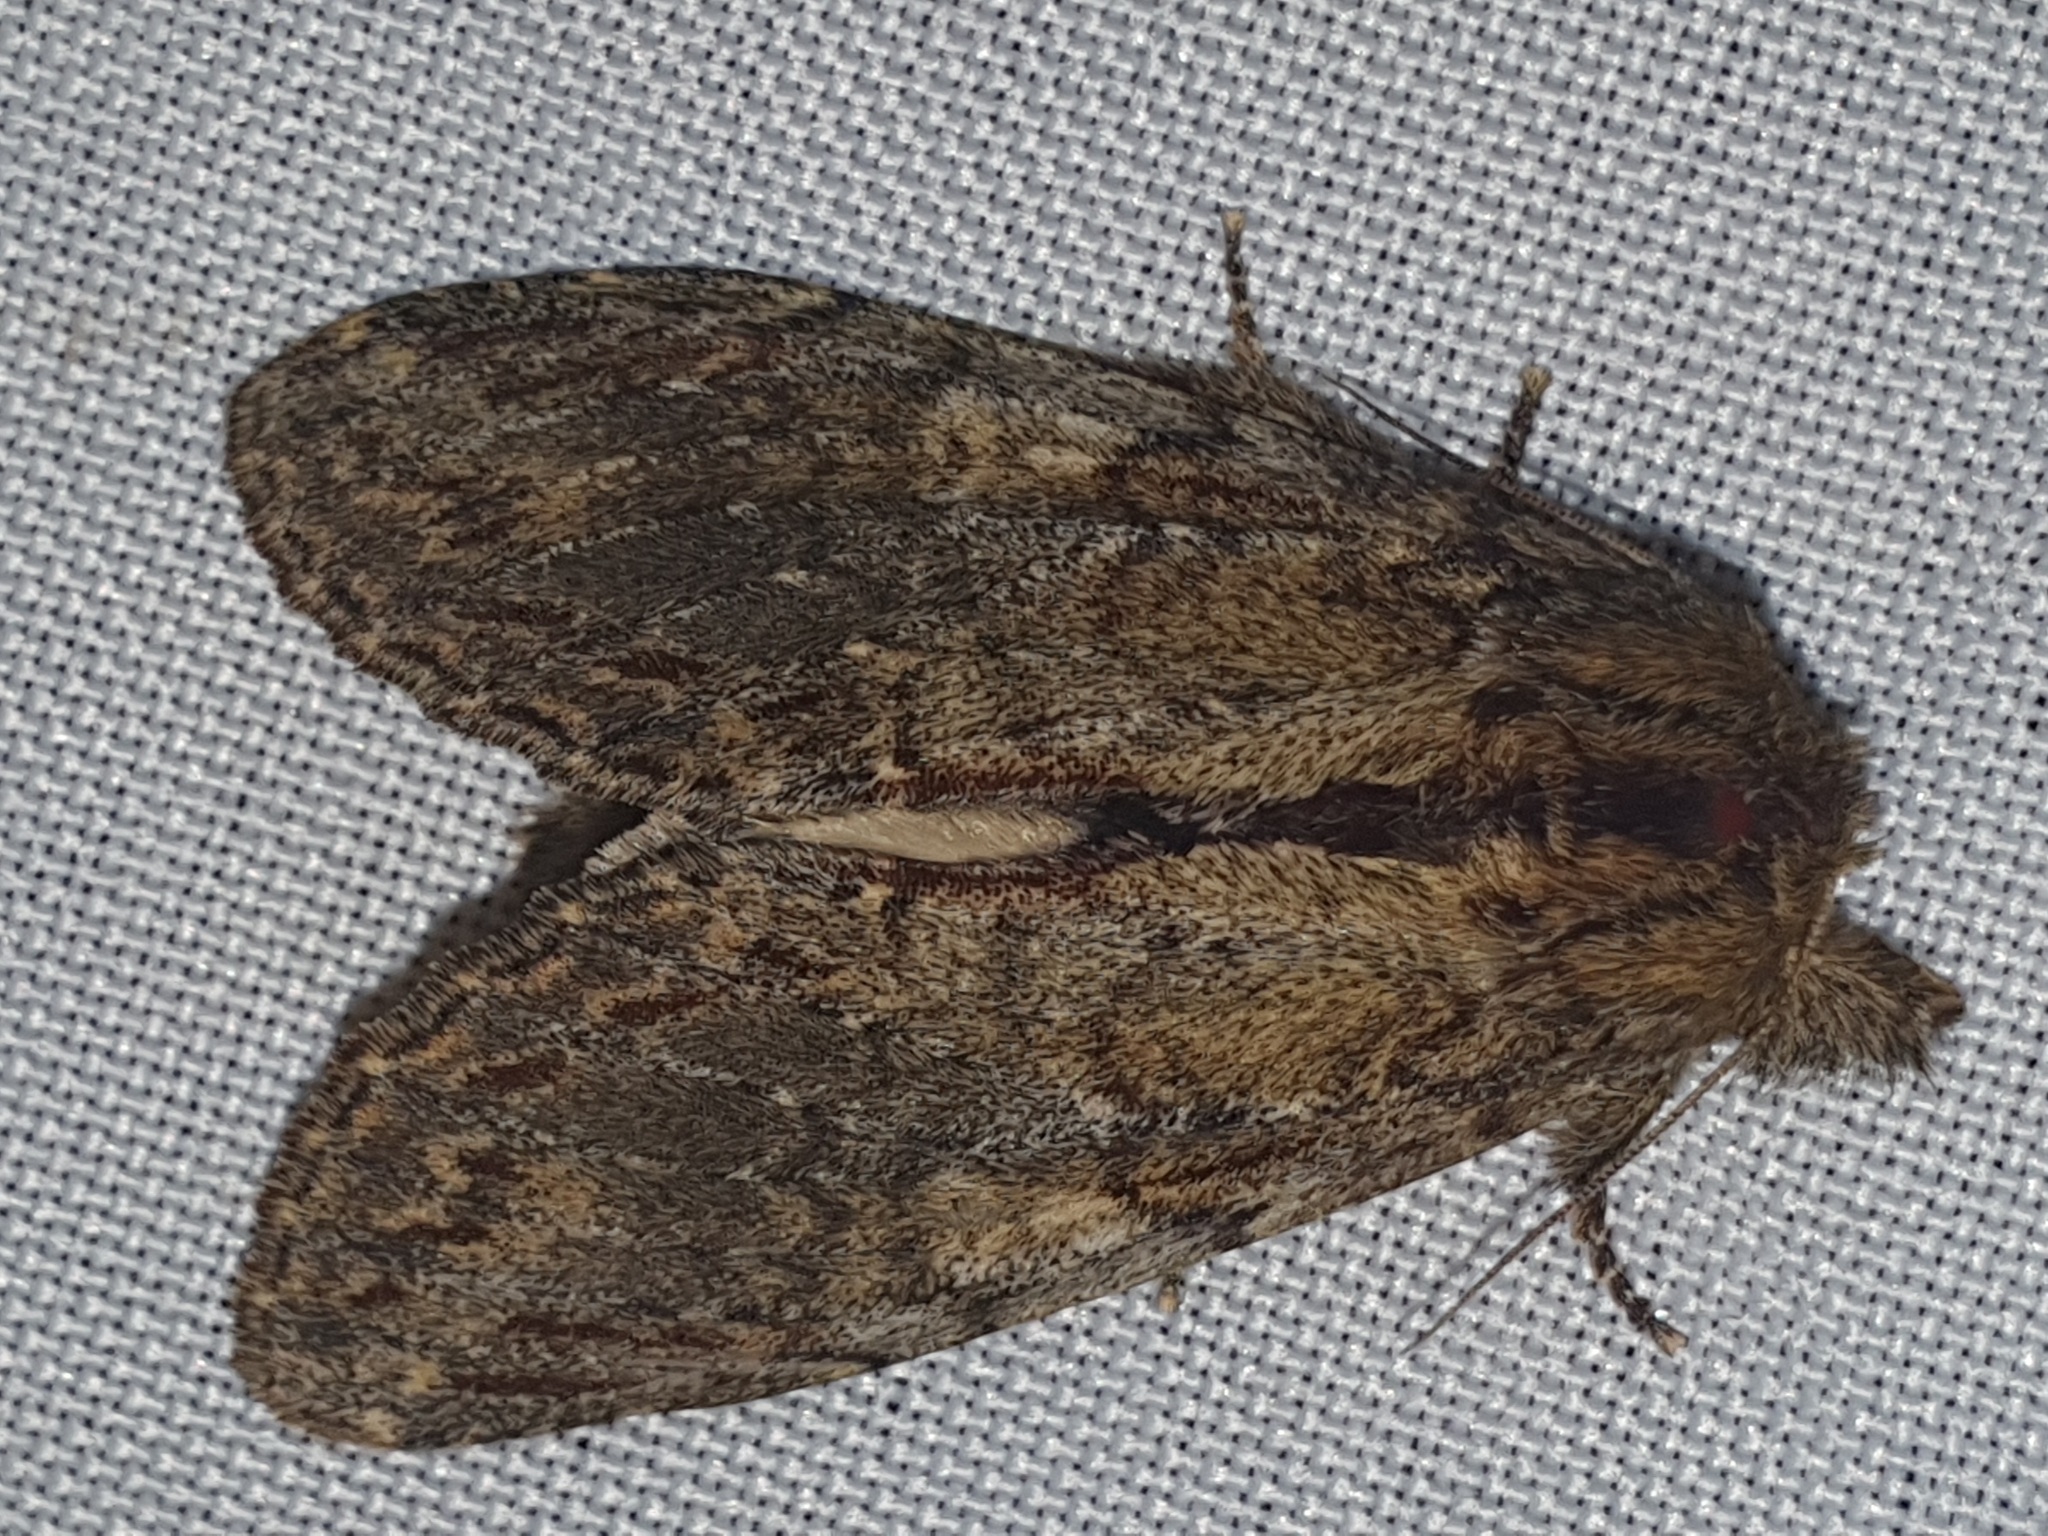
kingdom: Animalia
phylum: Arthropoda
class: Insecta
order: Lepidoptera
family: Notodontidae
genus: Peridea
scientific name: Peridea anceps
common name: Great prominent
